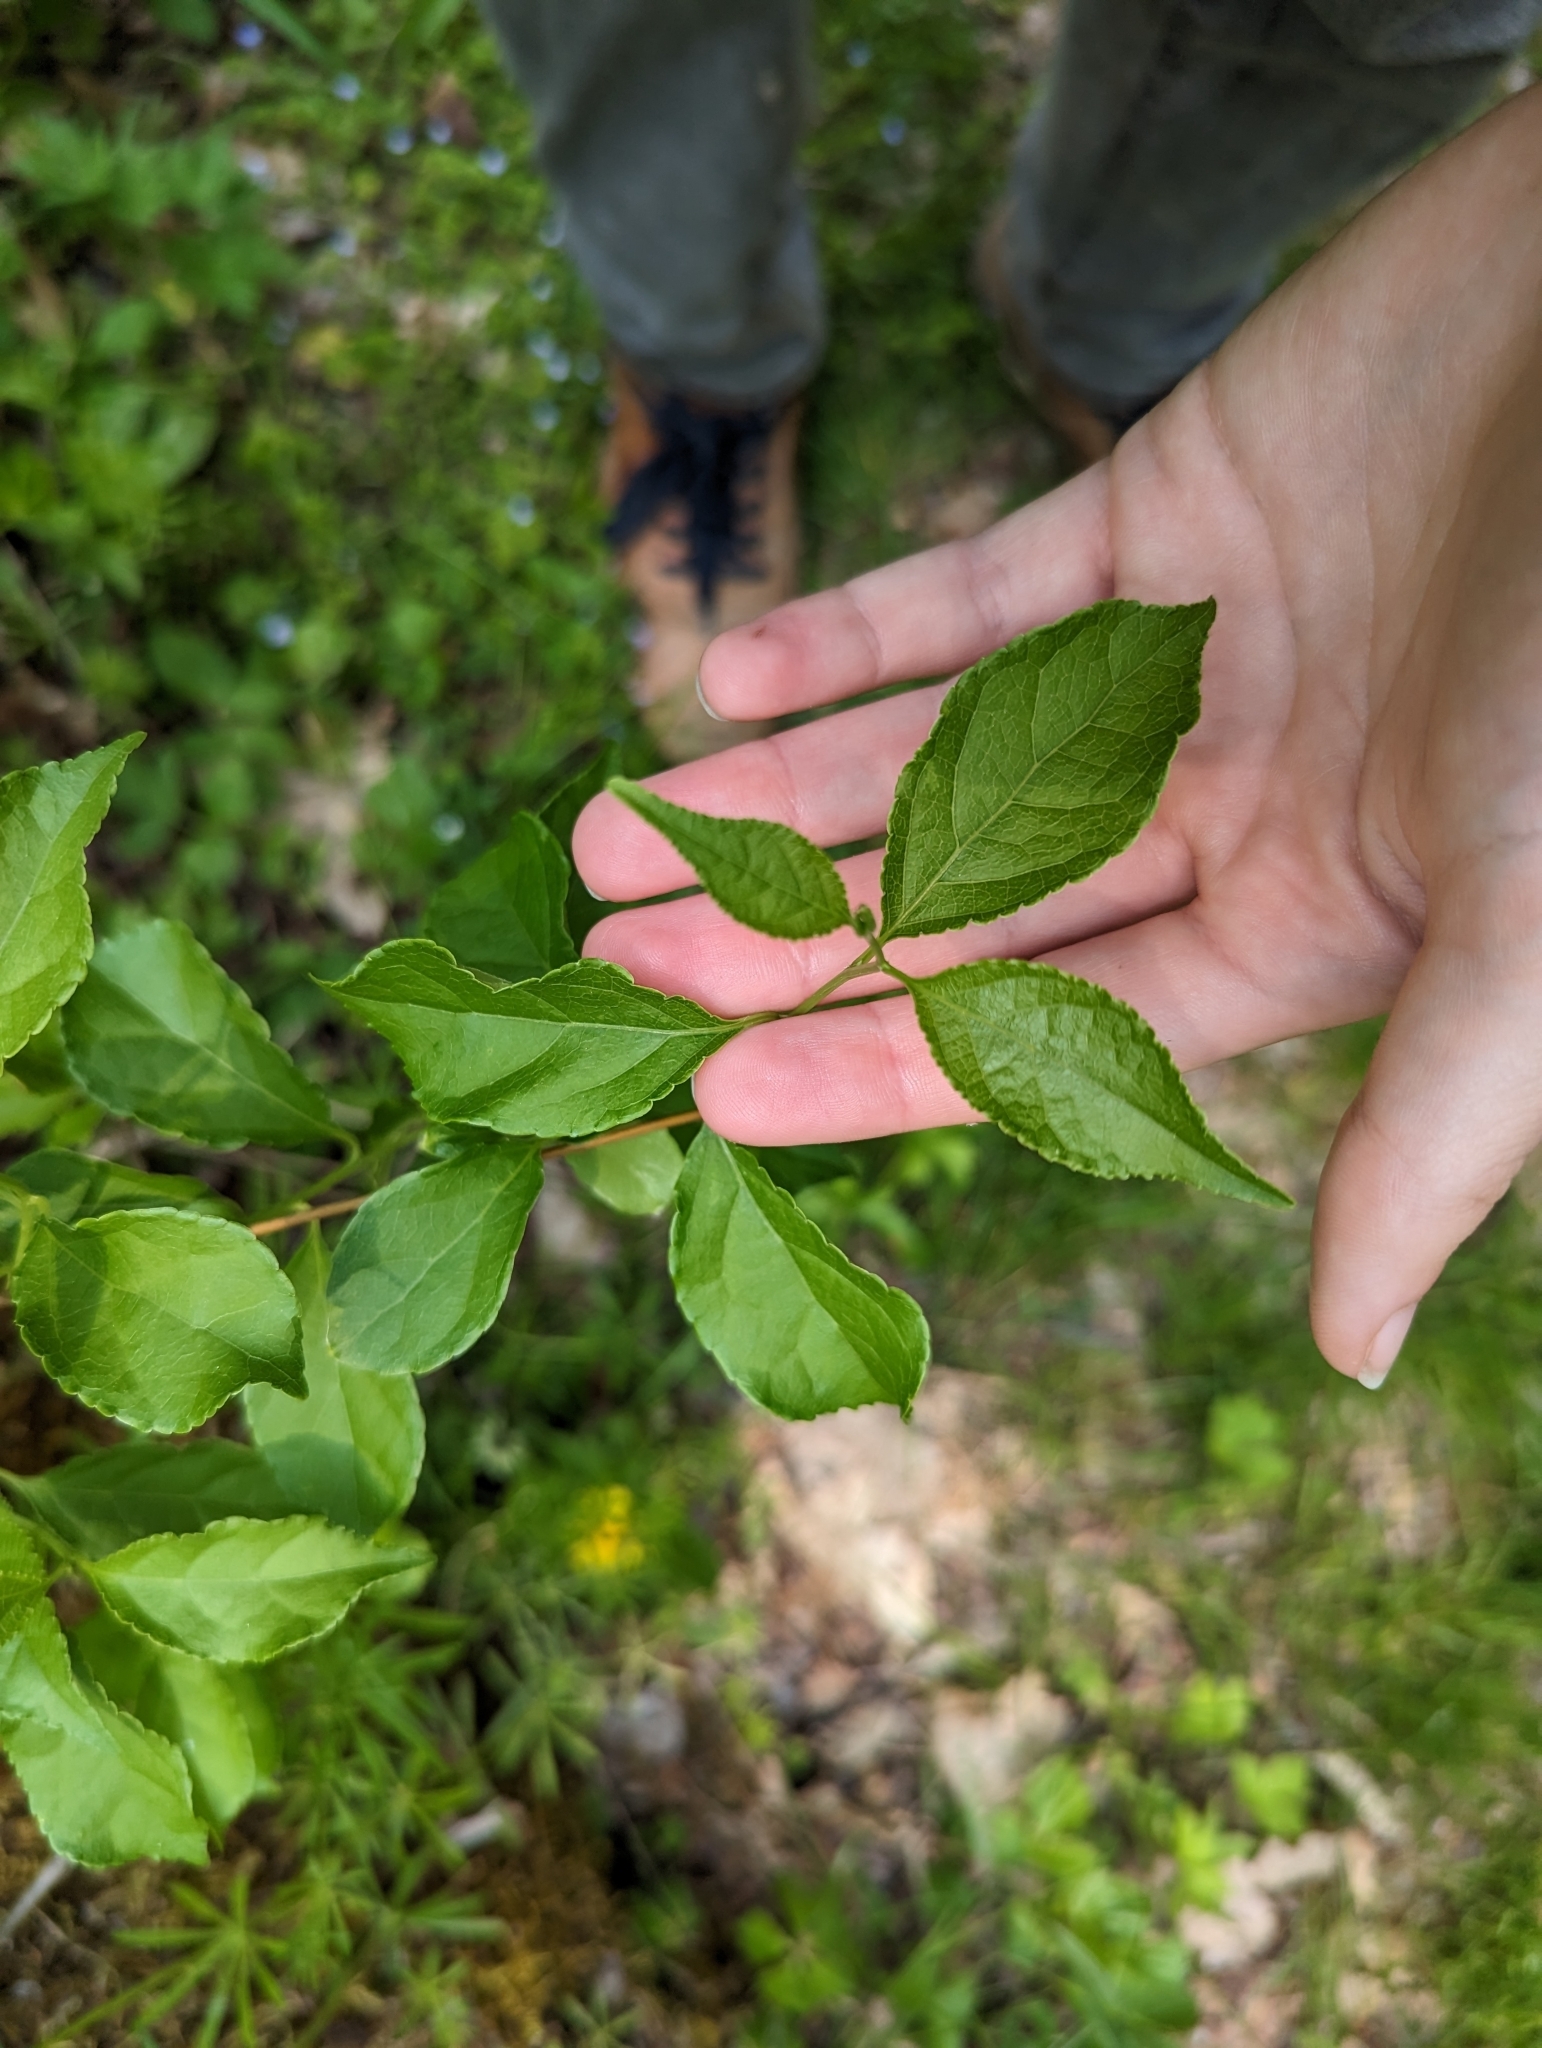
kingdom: Plantae
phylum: Tracheophyta
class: Magnoliopsida
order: Celastrales
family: Celastraceae
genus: Celastrus
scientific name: Celastrus orbiculatus
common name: Oriental bittersweet
